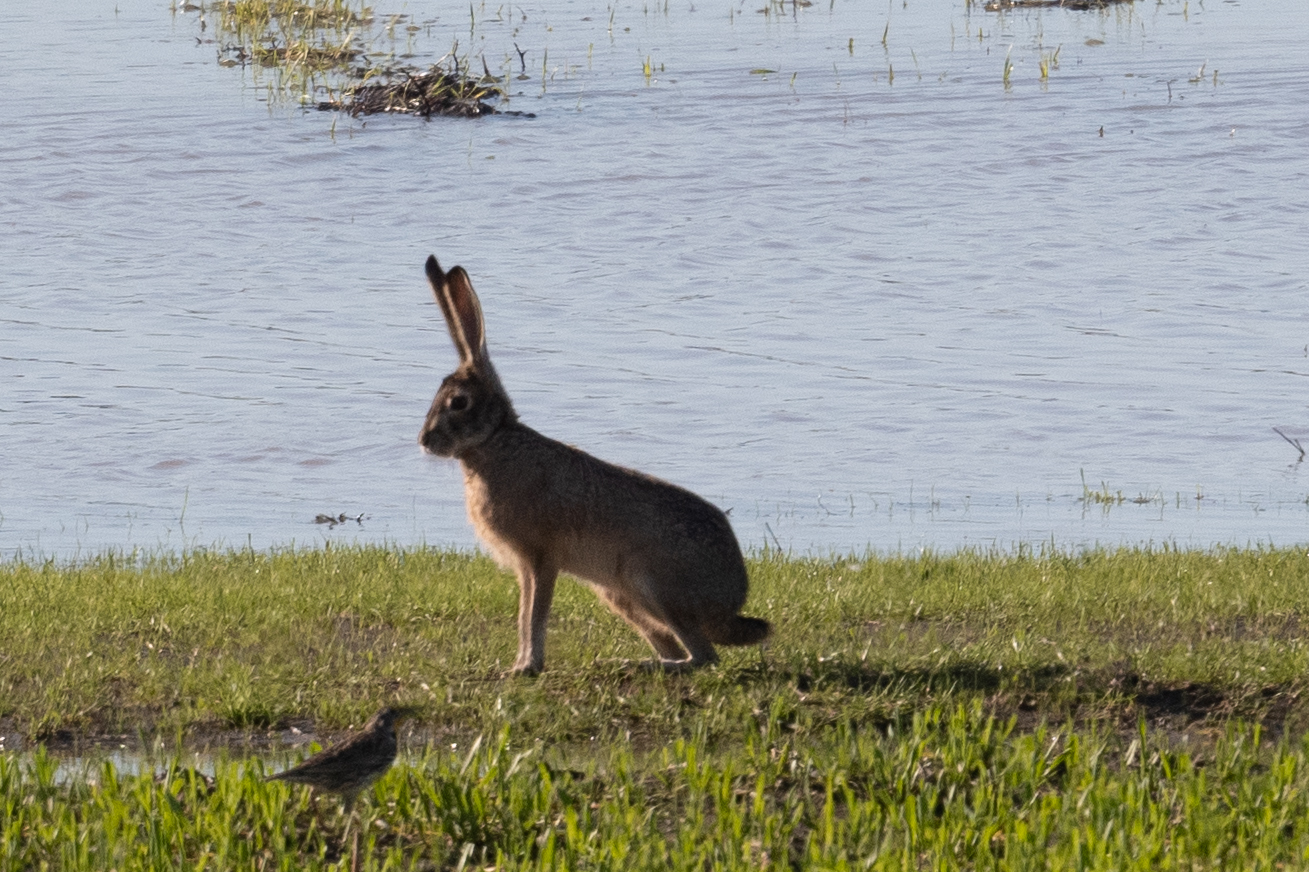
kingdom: Animalia
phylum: Chordata
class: Mammalia
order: Lagomorpha
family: Leporidae
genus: Lepus
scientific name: Lepus californicus
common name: Black-tailed jackrabbit
